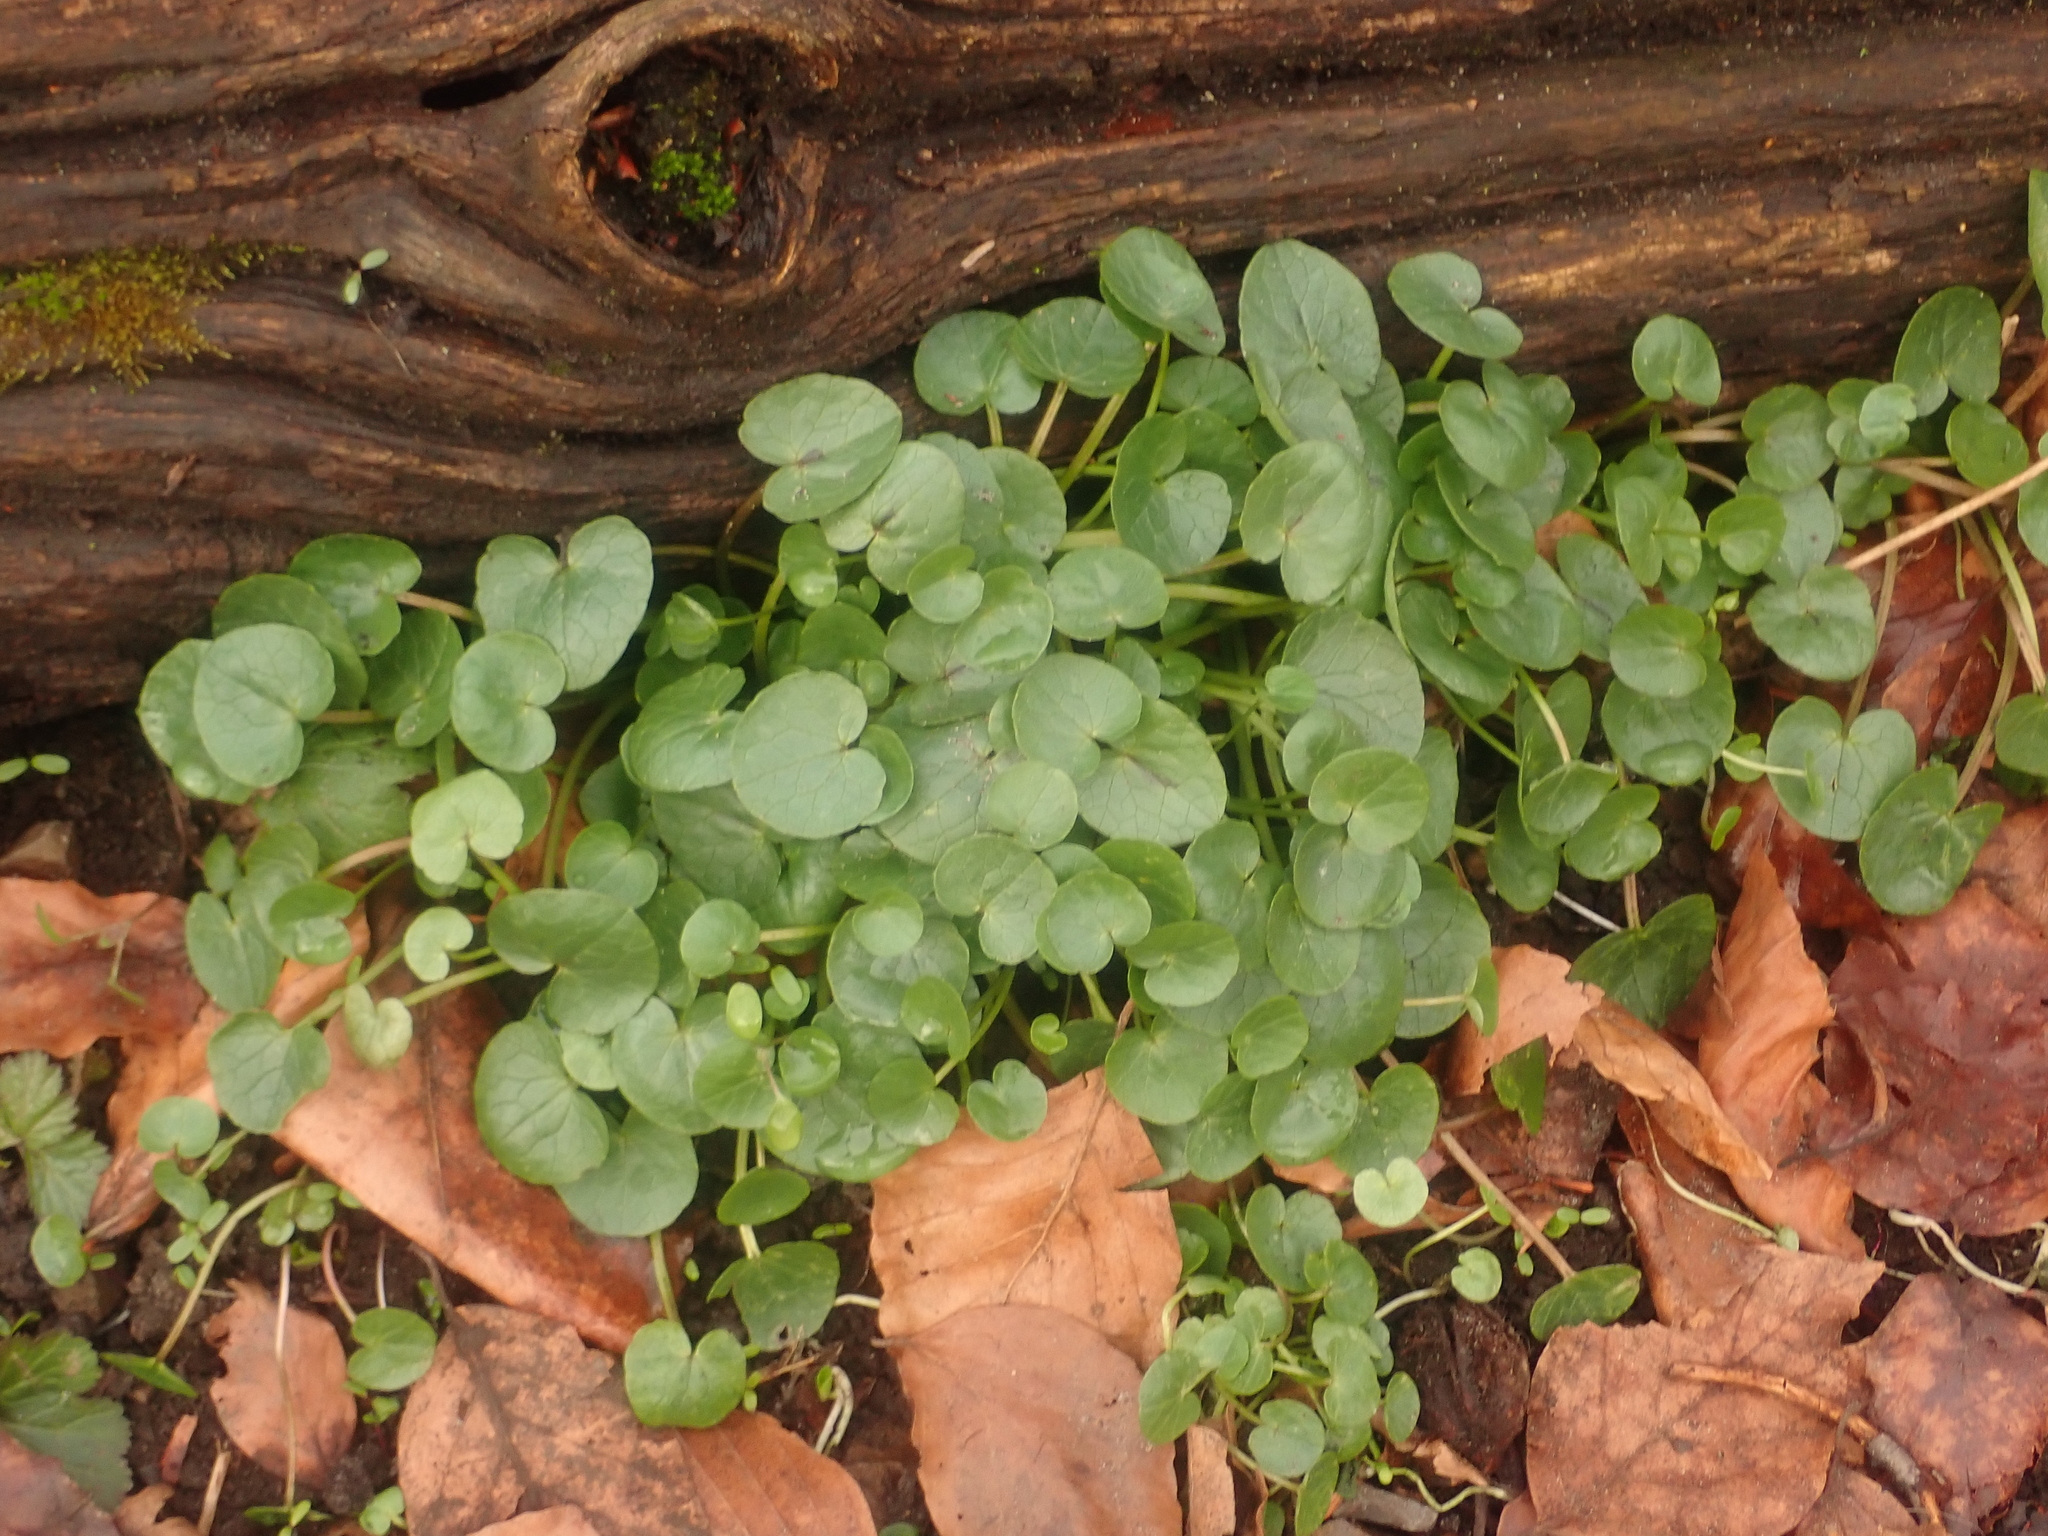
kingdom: Plantae
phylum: Tracheophyta
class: Magnoliopsida
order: Ranunculales
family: Ranunculaceae
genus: Ficaria
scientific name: Ficaria verna
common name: Lesser celandine
